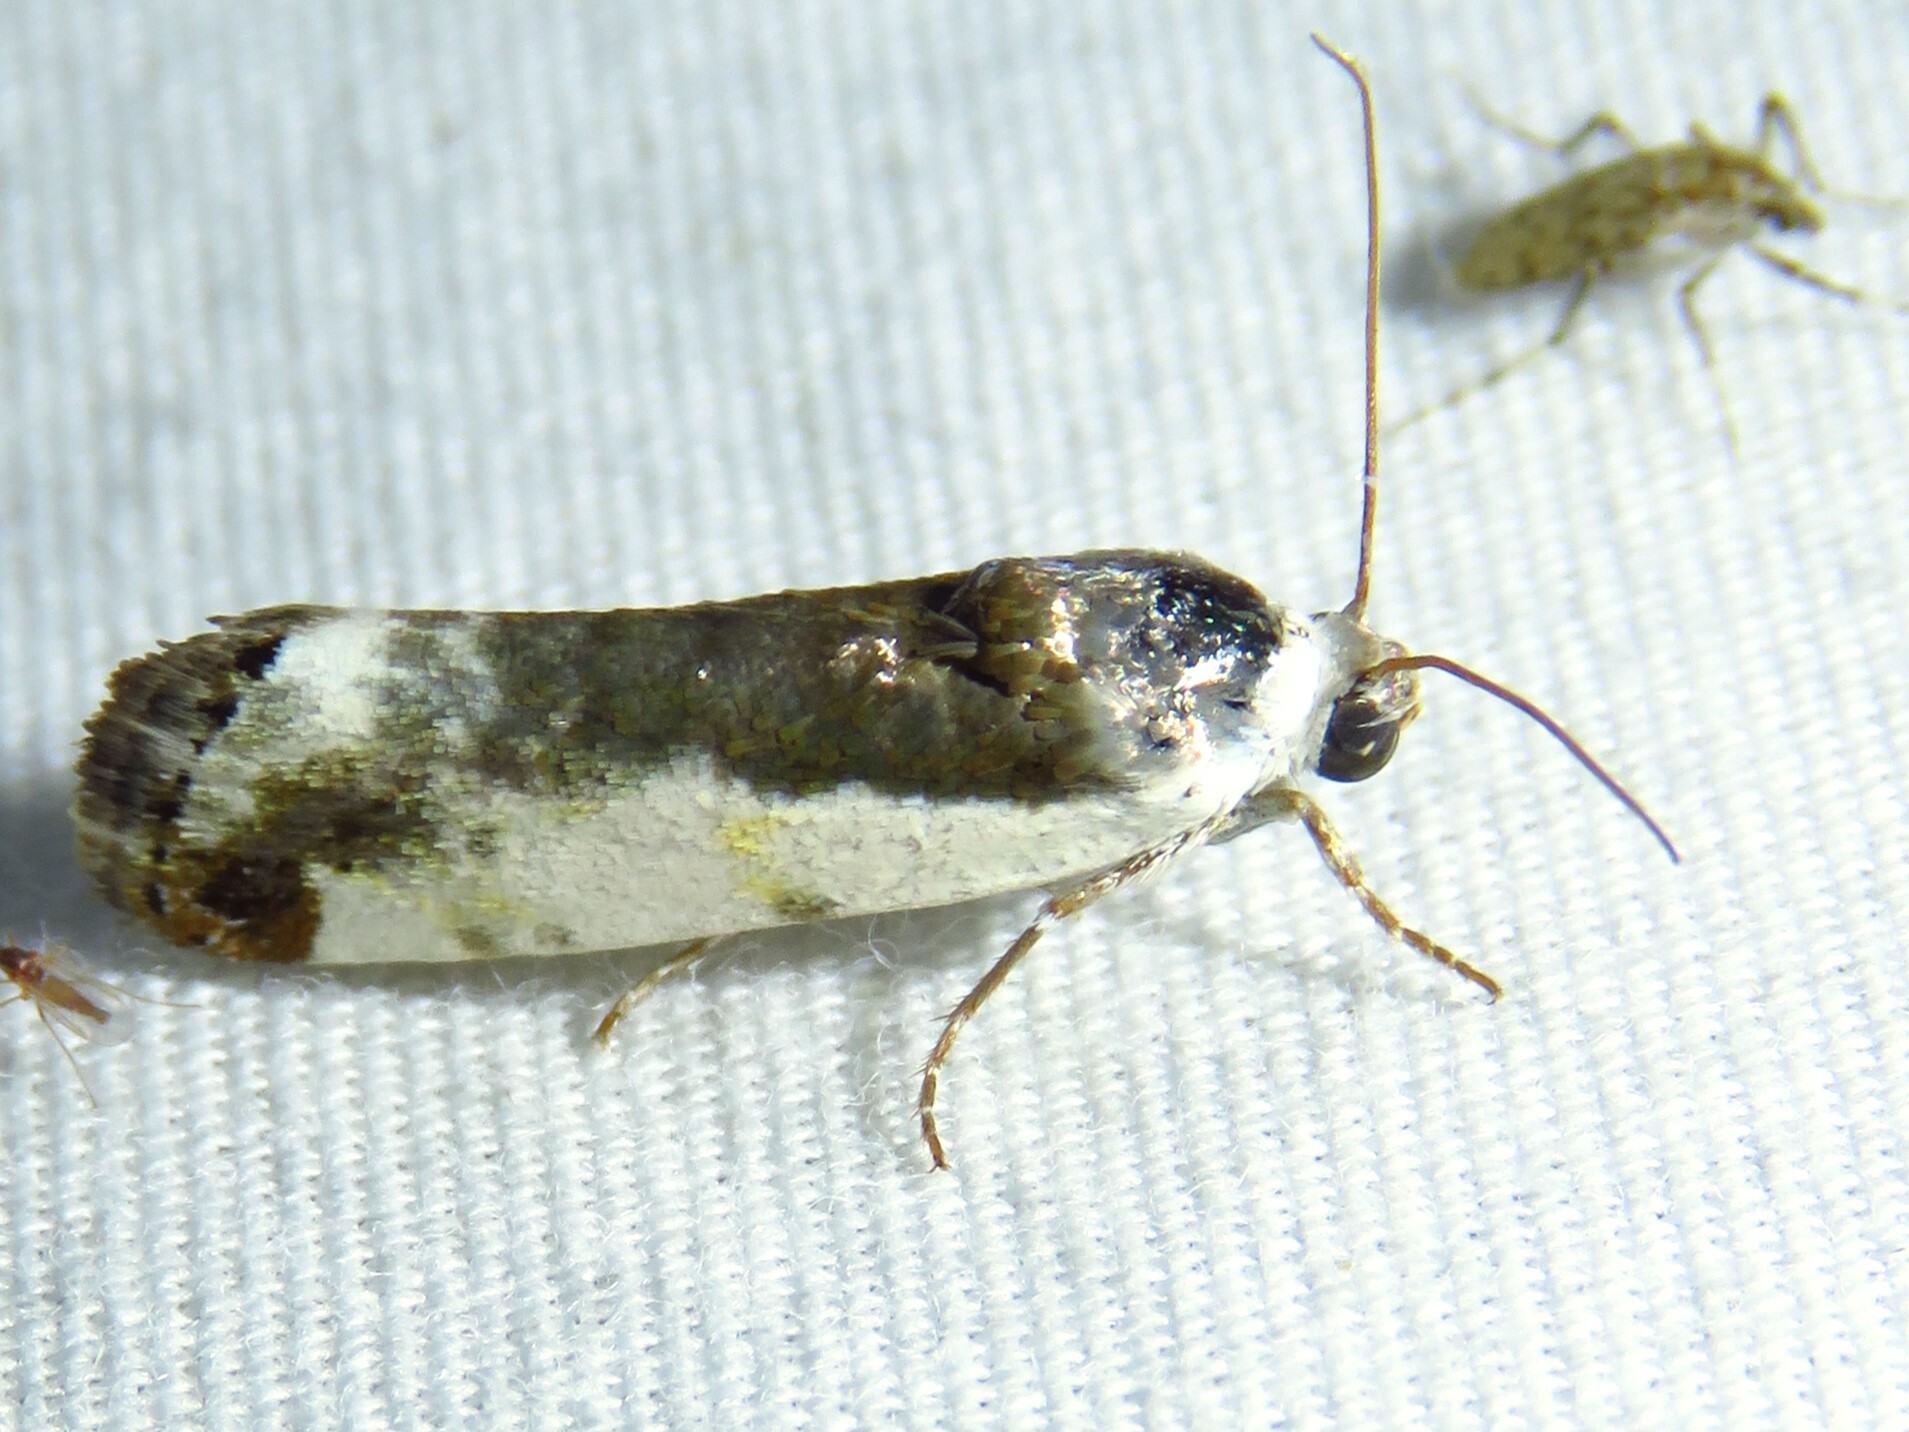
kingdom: Animalia
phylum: Arthropoda
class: Insecta
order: Lepidoptera
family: Noctuidae
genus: Acontia
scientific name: Acontia Tarache expolita
